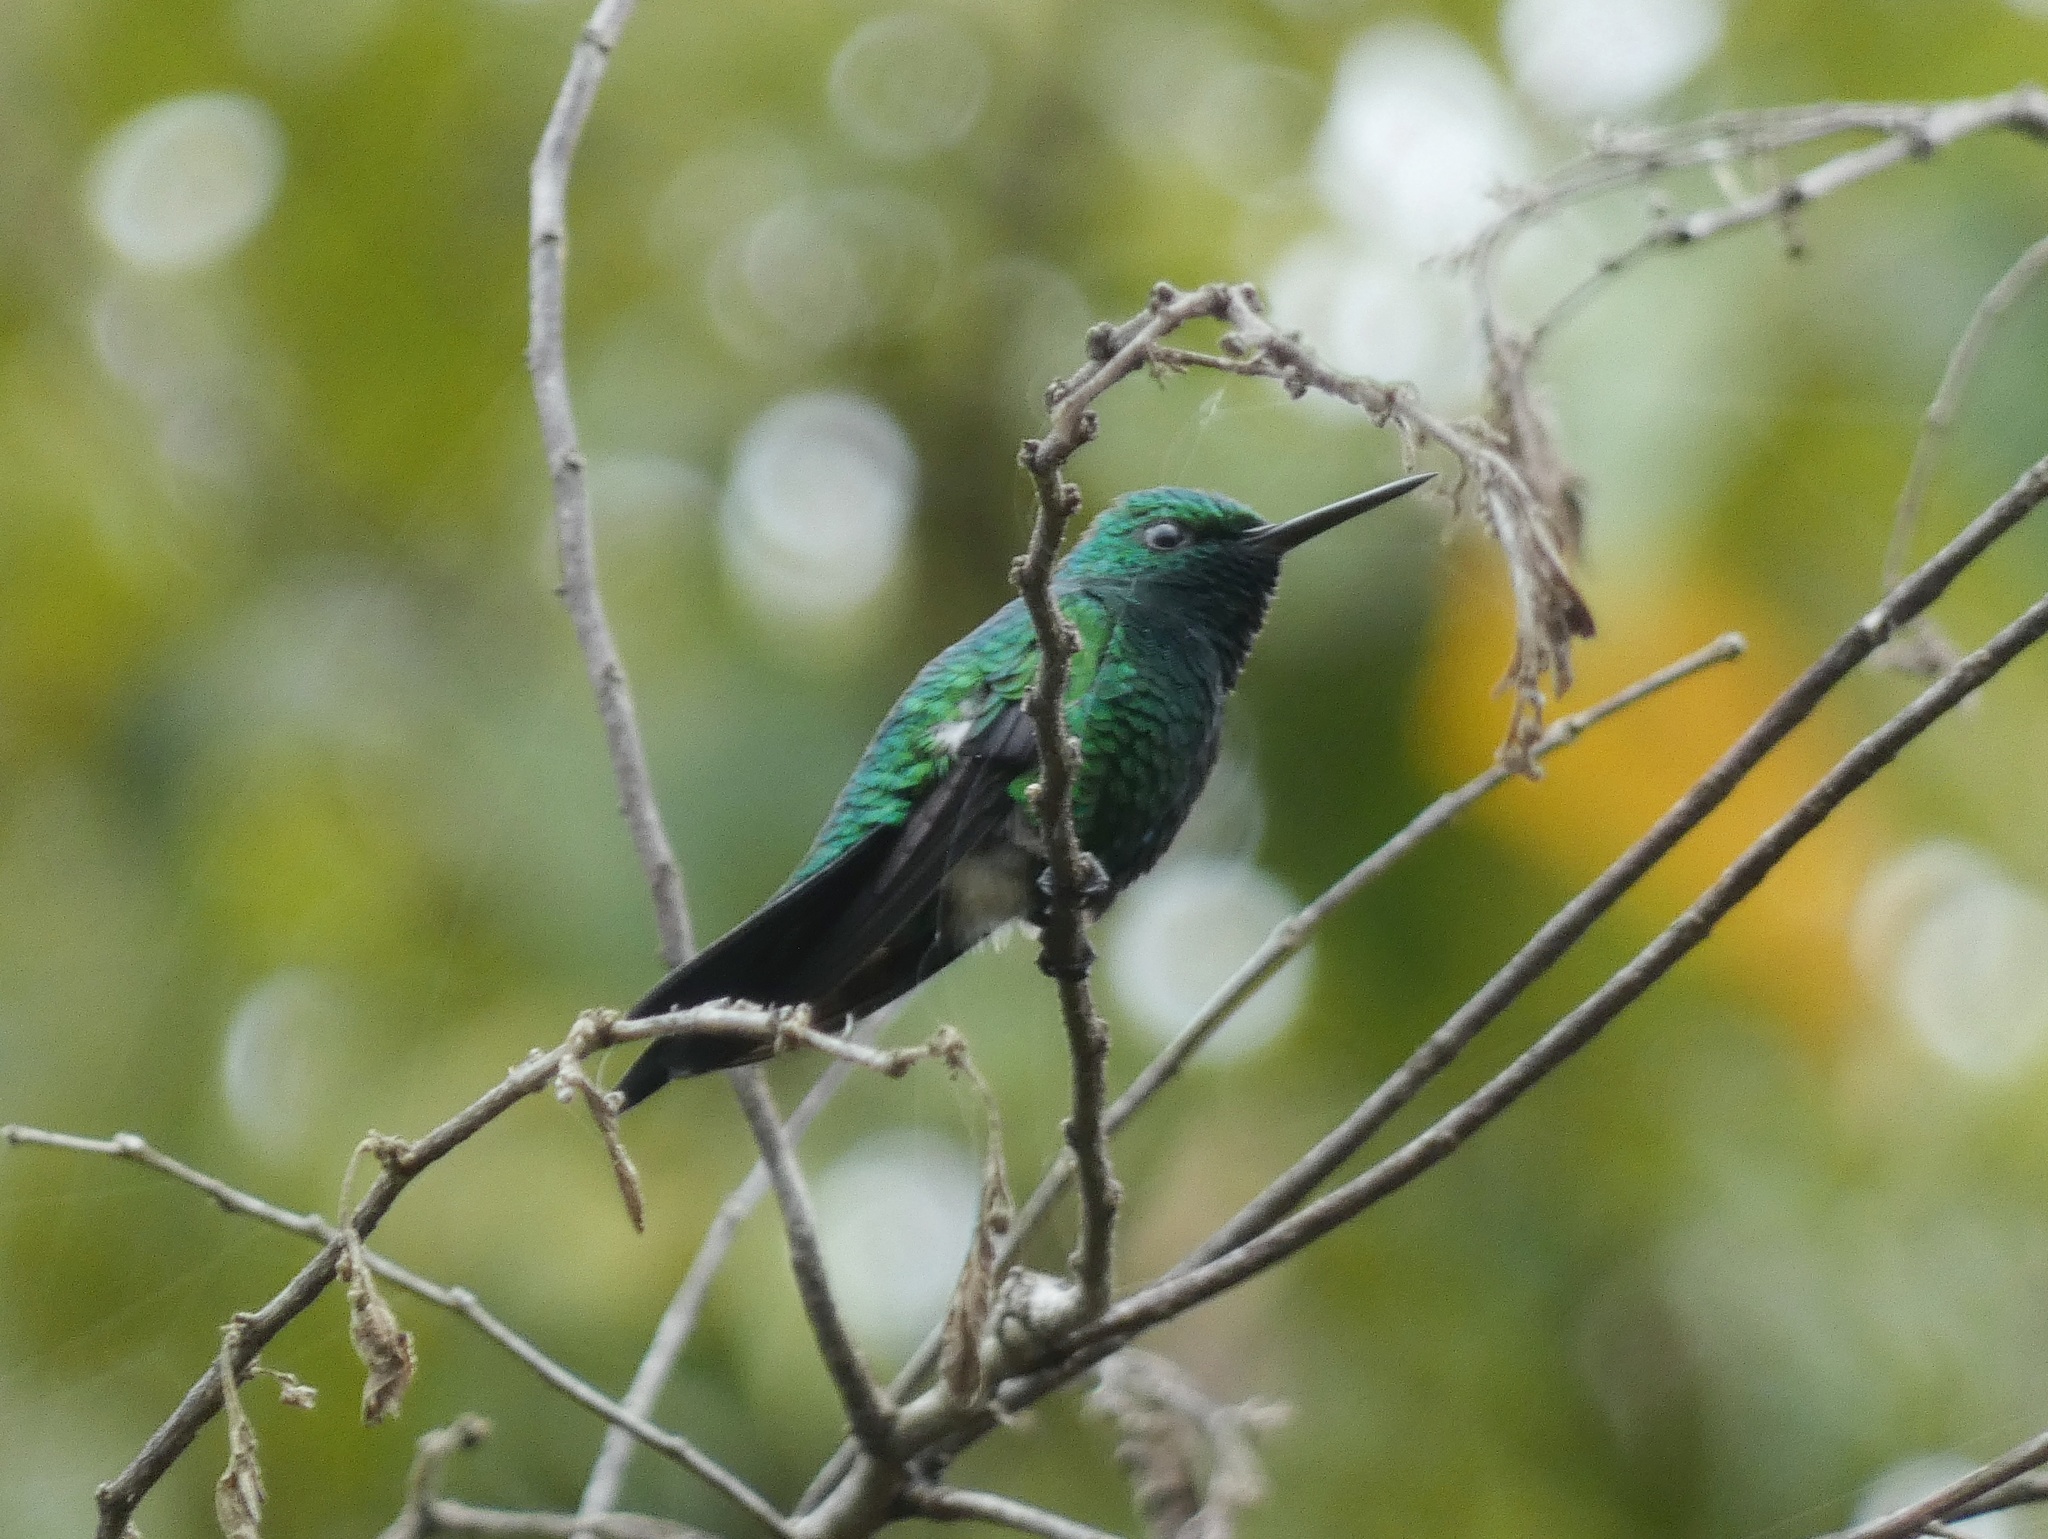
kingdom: Animalia
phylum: Chordata
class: Aves
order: Apodiformes
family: Trochilidae
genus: Chrysuronia
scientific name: Chrysuronia coeruleogularis
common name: Sapphire-throated hummingbird
